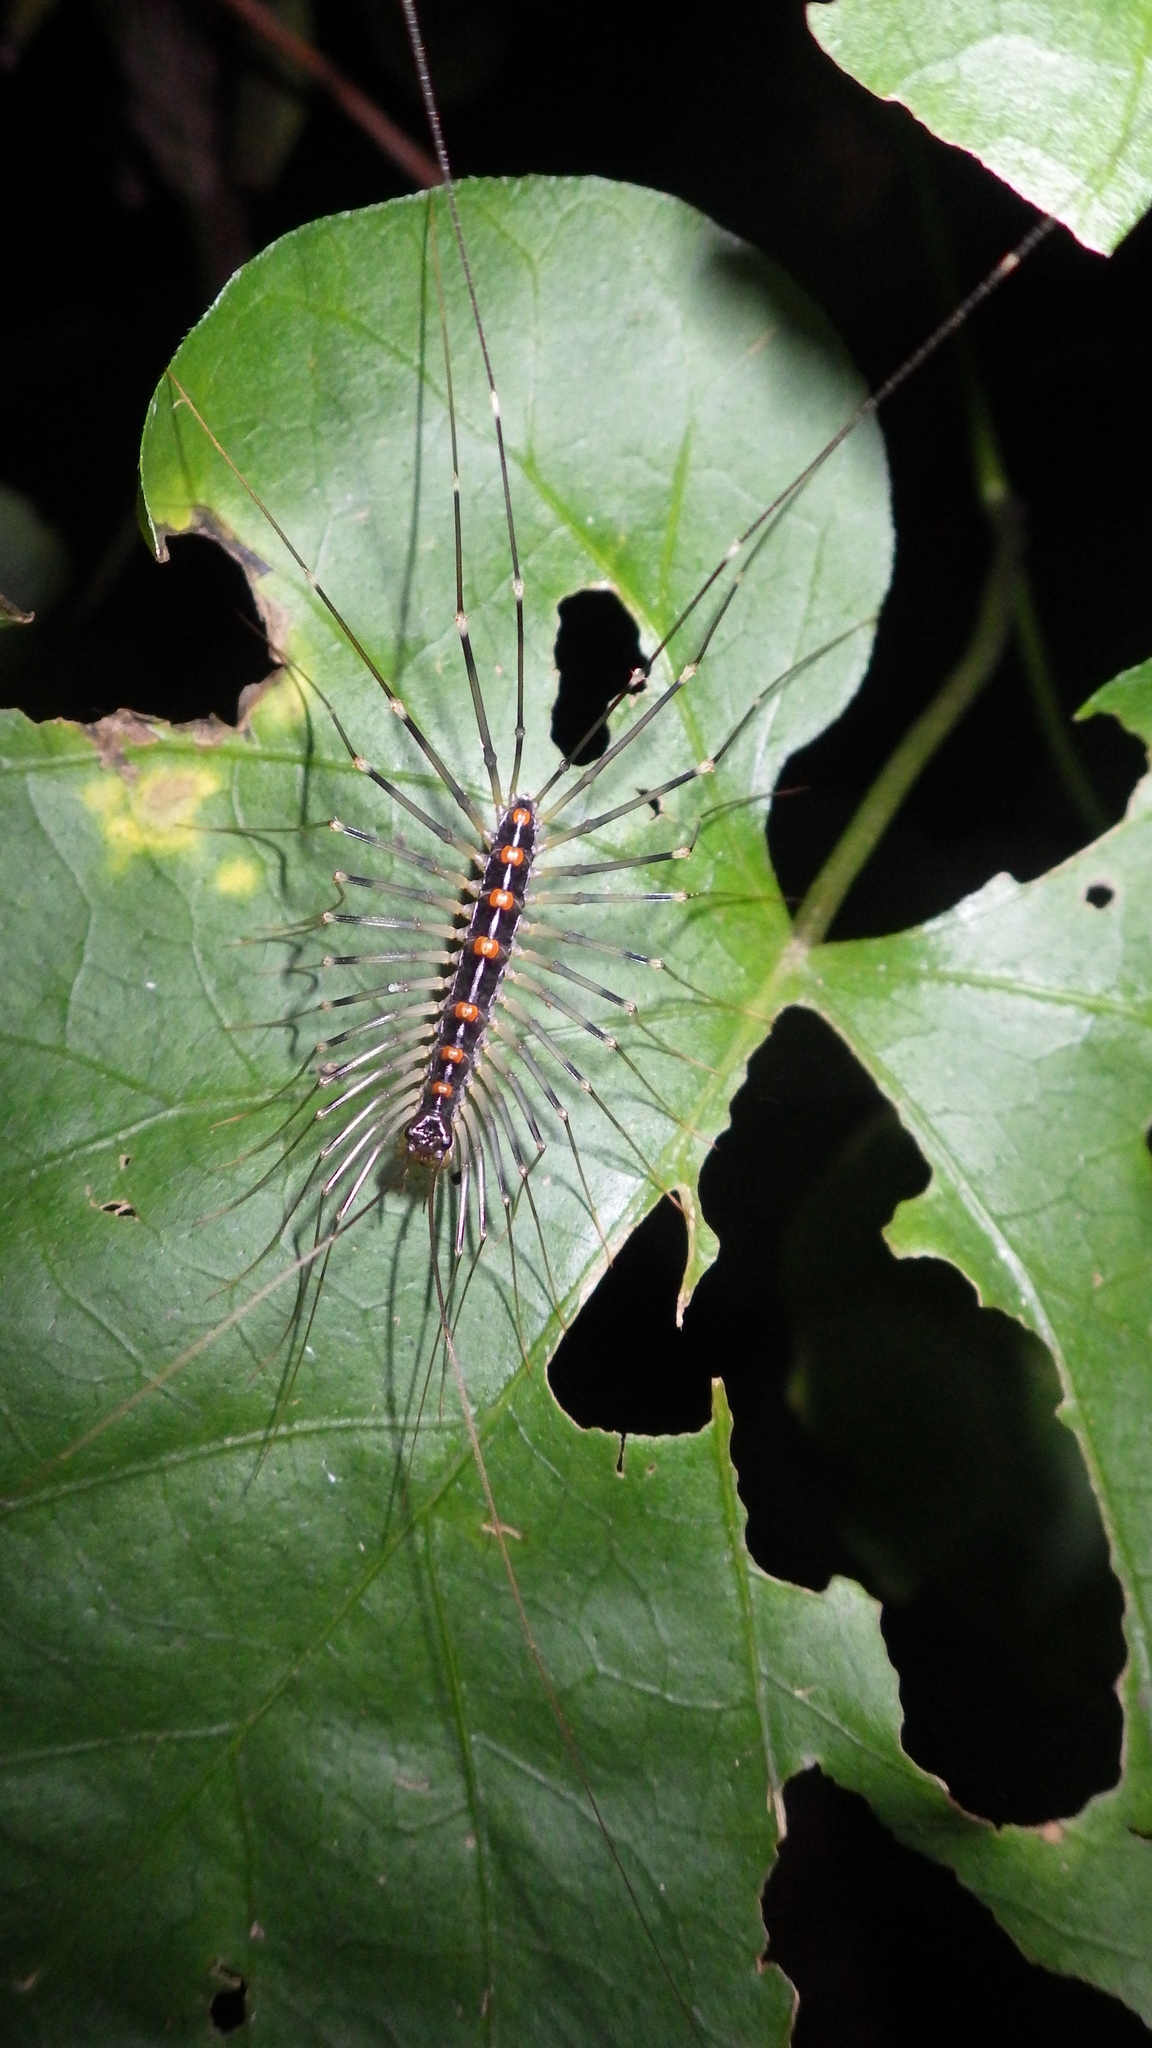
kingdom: Animalia
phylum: Arthropoda
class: Chilopoda
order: Scutigeromorpha
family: Scutigeridae
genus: Thereuopoda
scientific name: Thereuopoda clunifera
